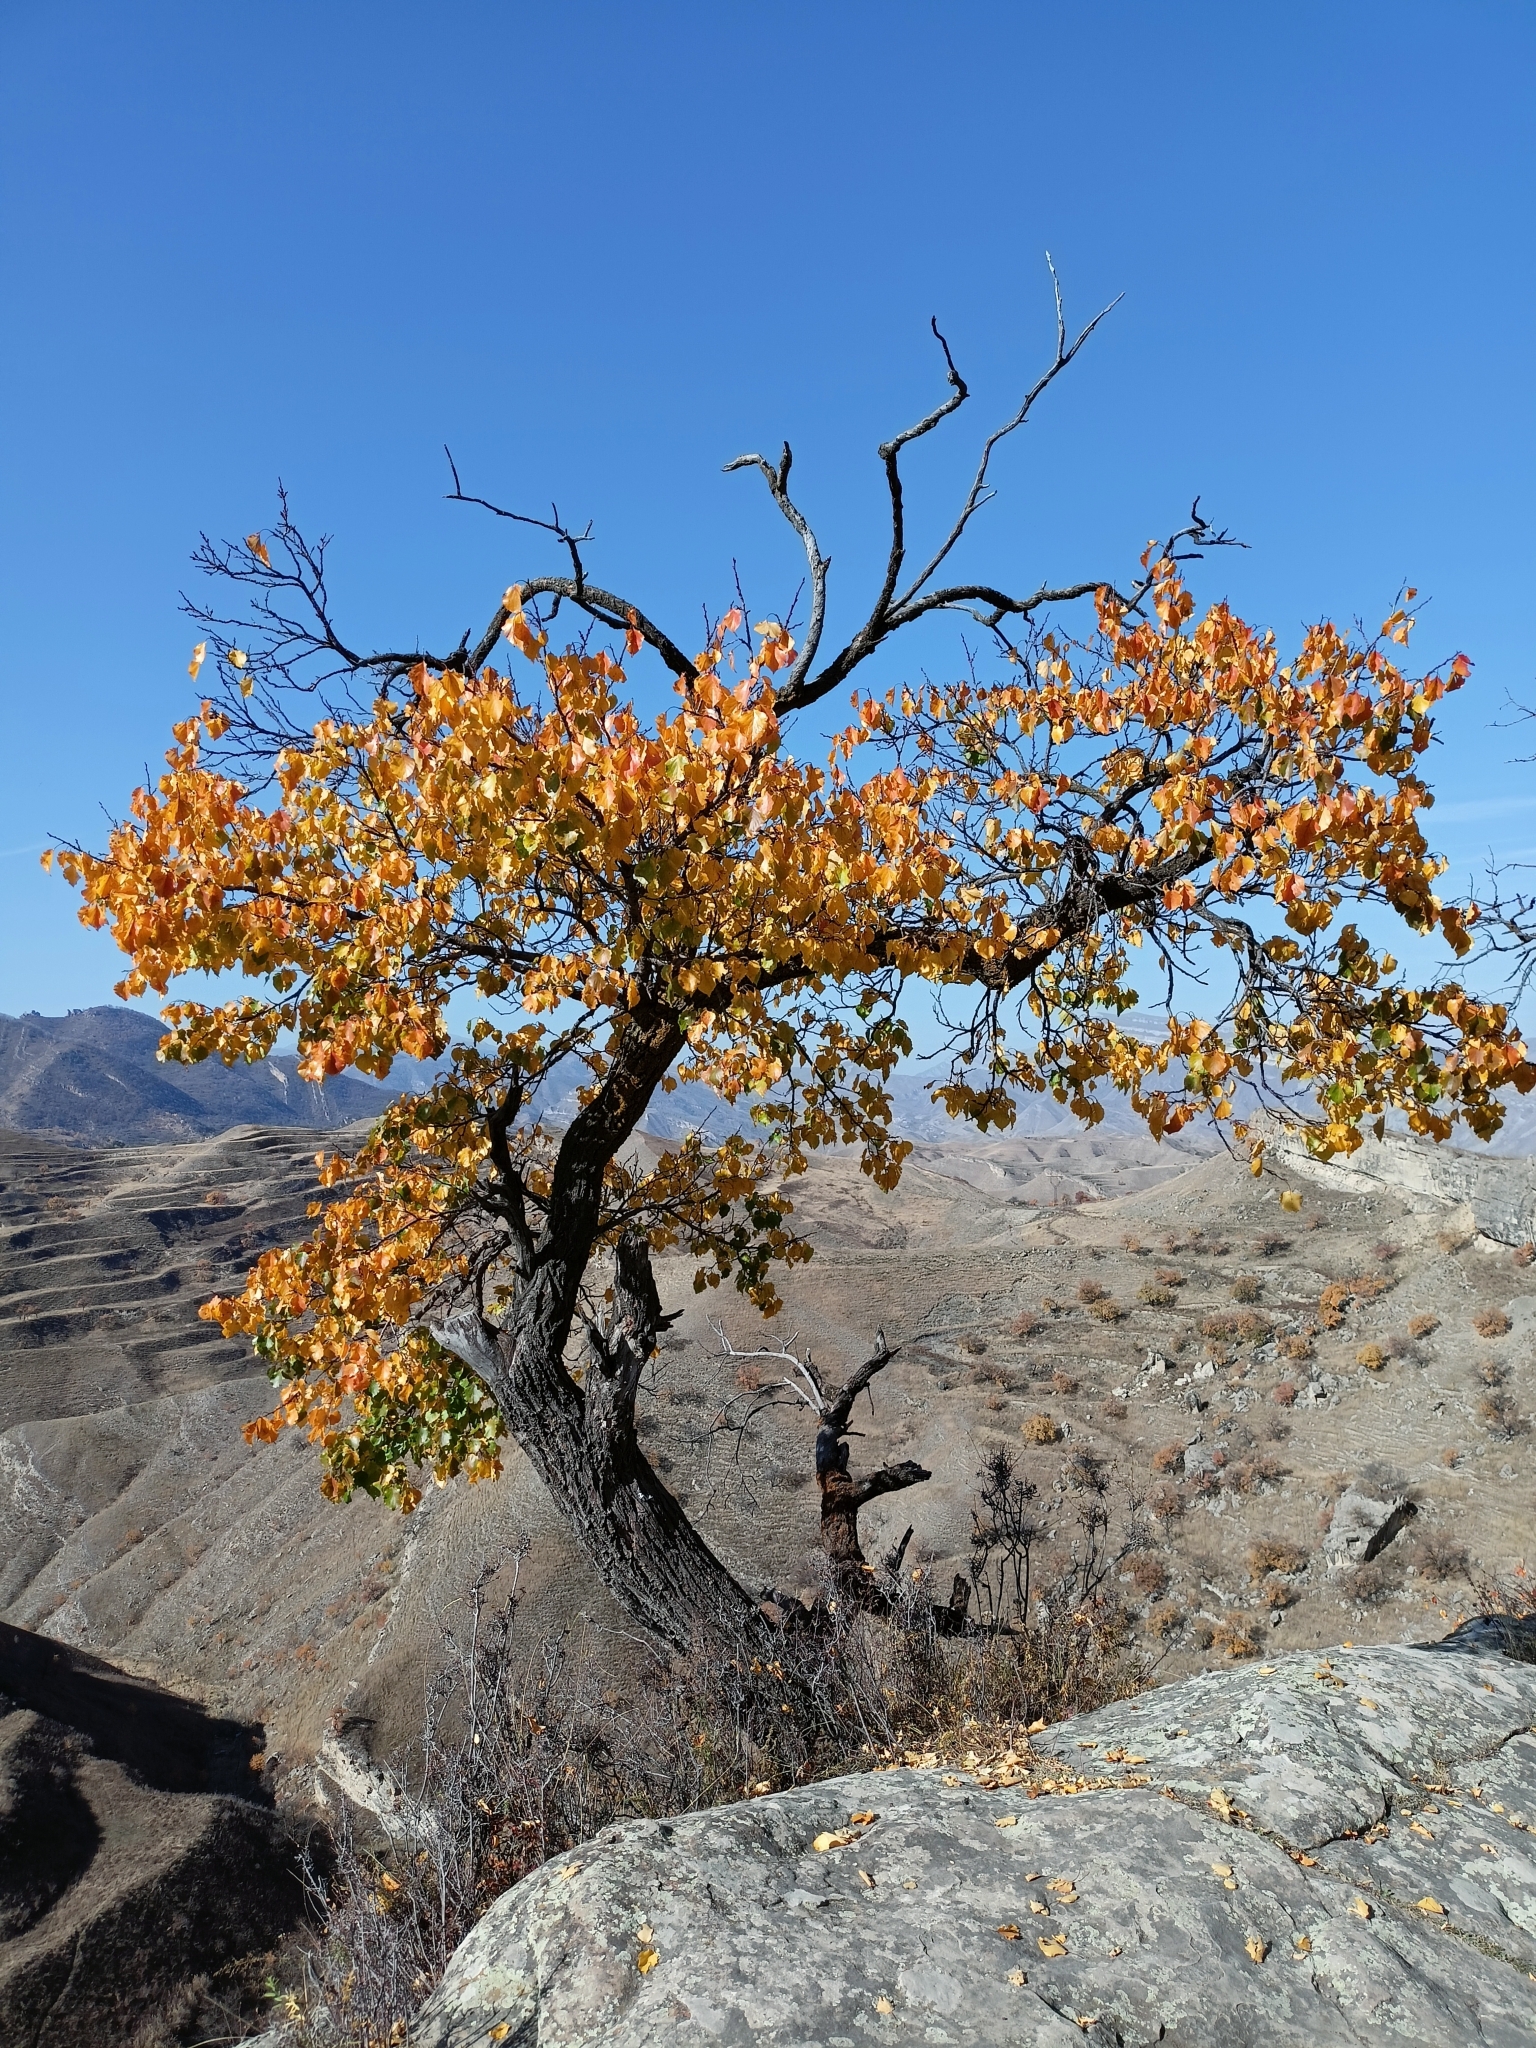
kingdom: Plantae
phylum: Tracheophyta
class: Magnoliopsida
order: Rosales
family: Rosaceae
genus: Prunus
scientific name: Prunus armeniaca
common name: Apricot
